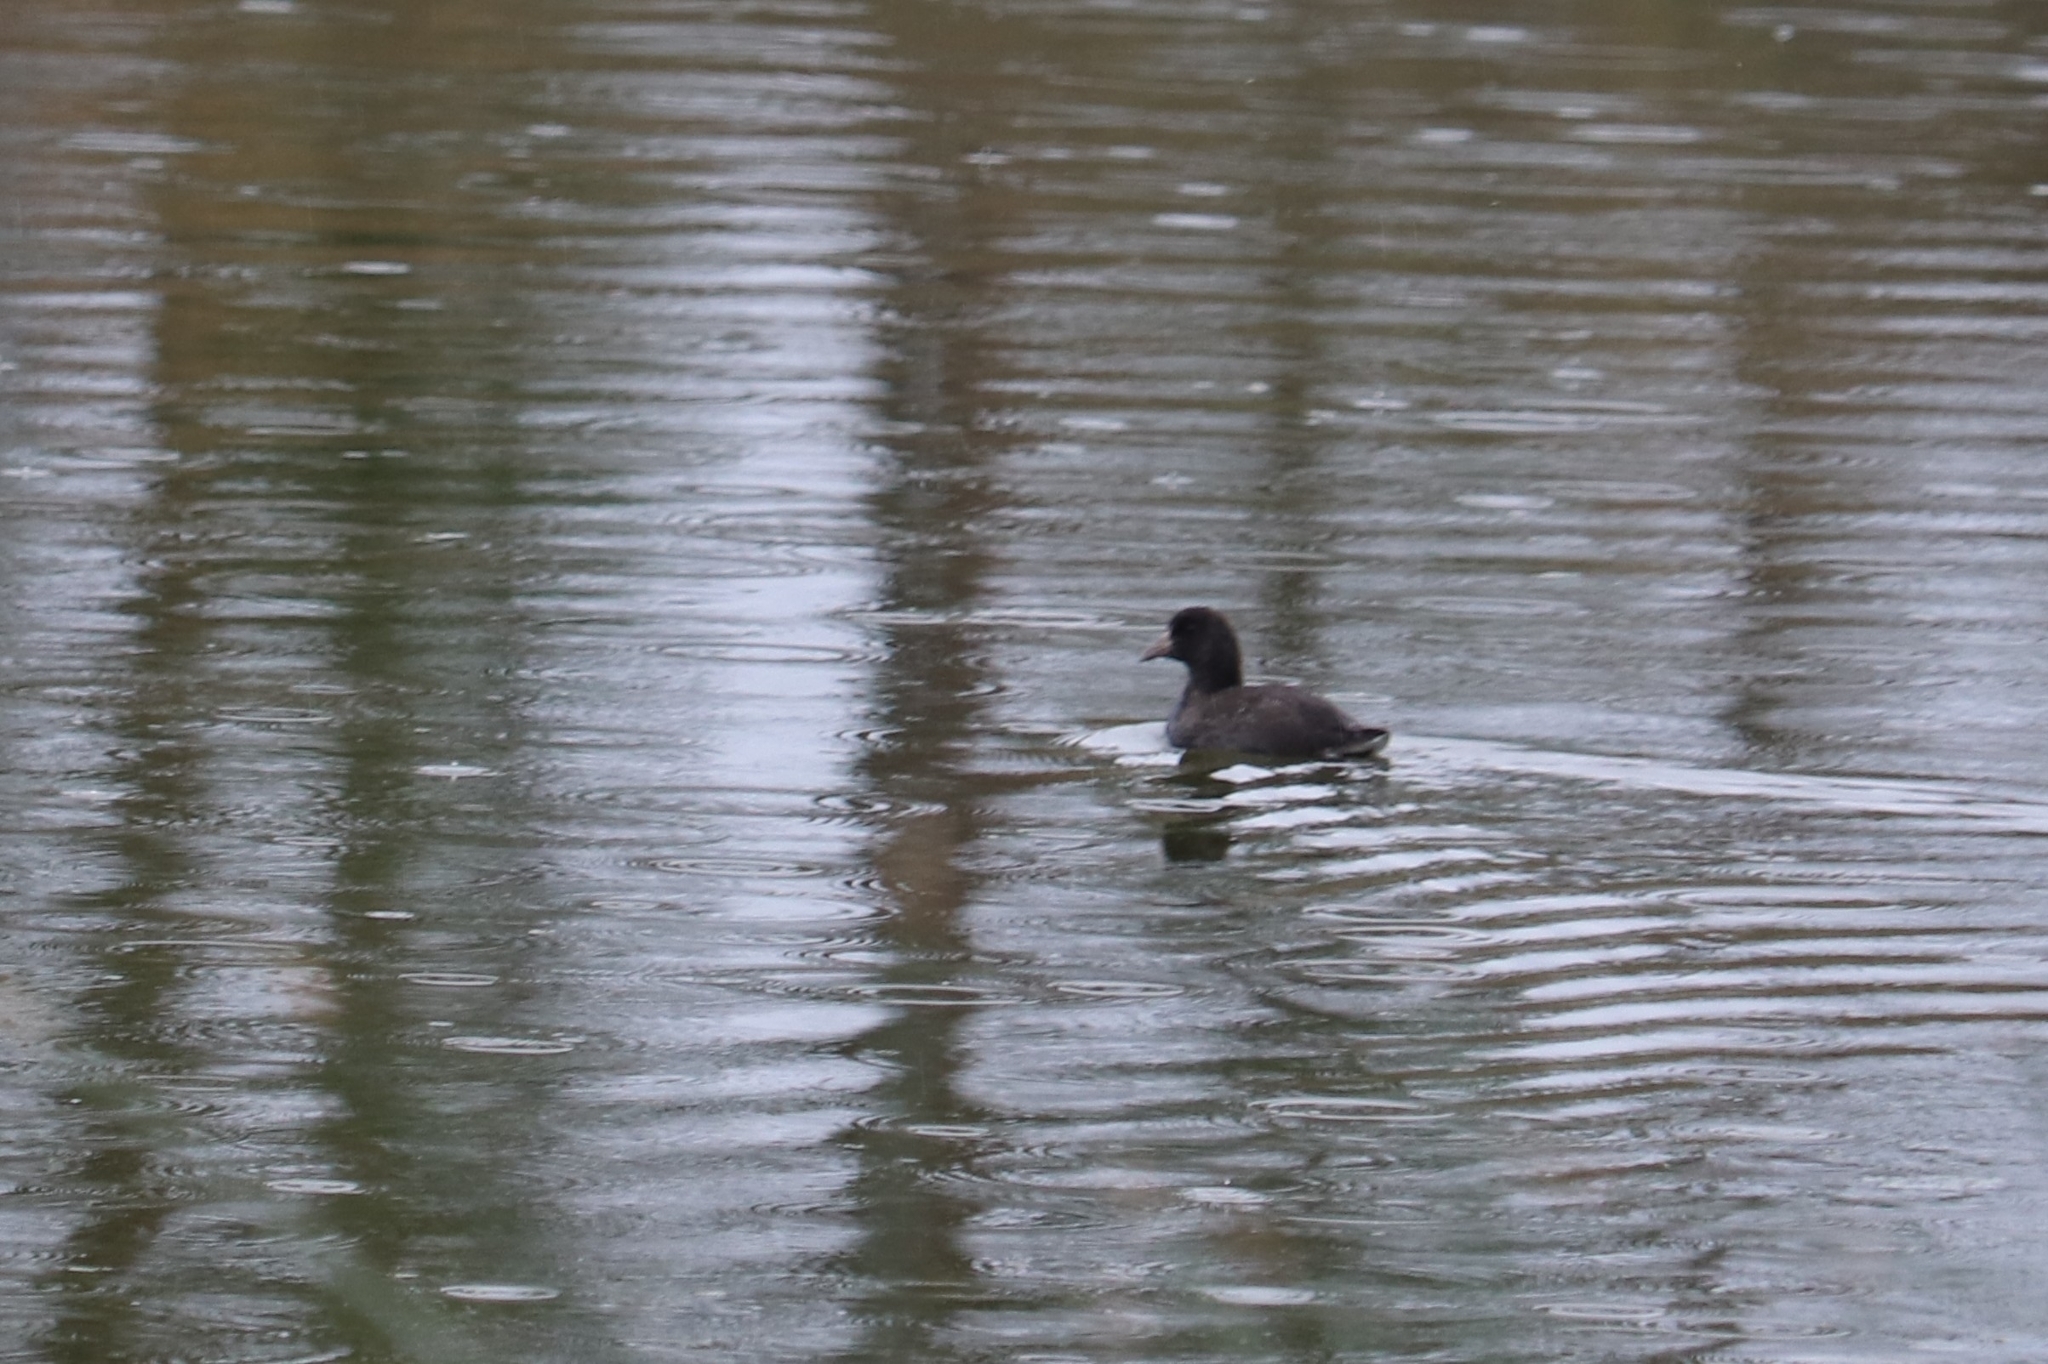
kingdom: Animalia
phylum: Chordata
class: Aves
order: Gruiformes
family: Rallidae
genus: Fulica
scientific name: Fulica americana
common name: American coot
